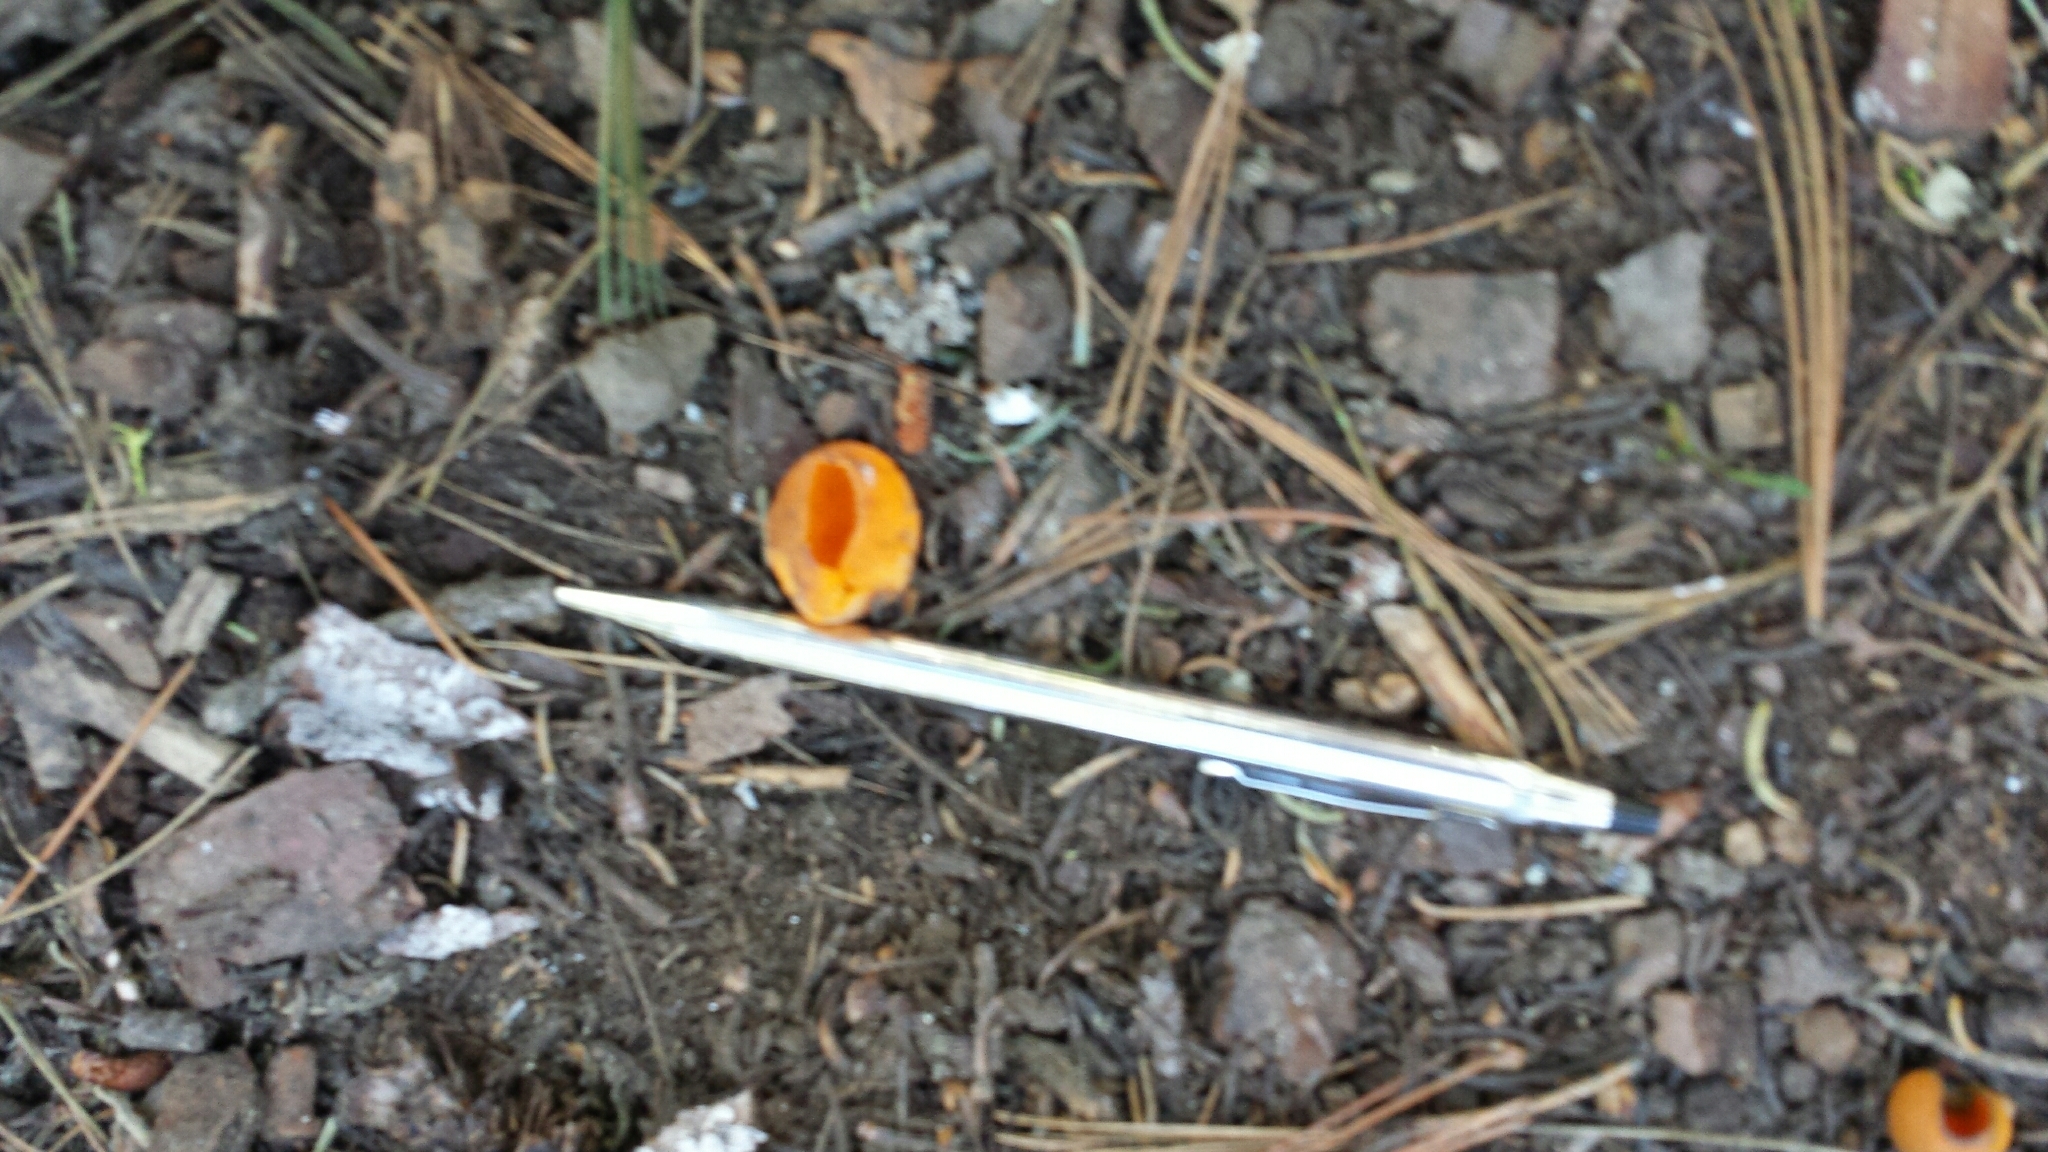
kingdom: Fungi
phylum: Ascomycota
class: Pezizomycetes
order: Pezizales
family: Caloscyphaceae
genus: Caloscypha
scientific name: Caloscypha fulgens
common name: Golden cup
